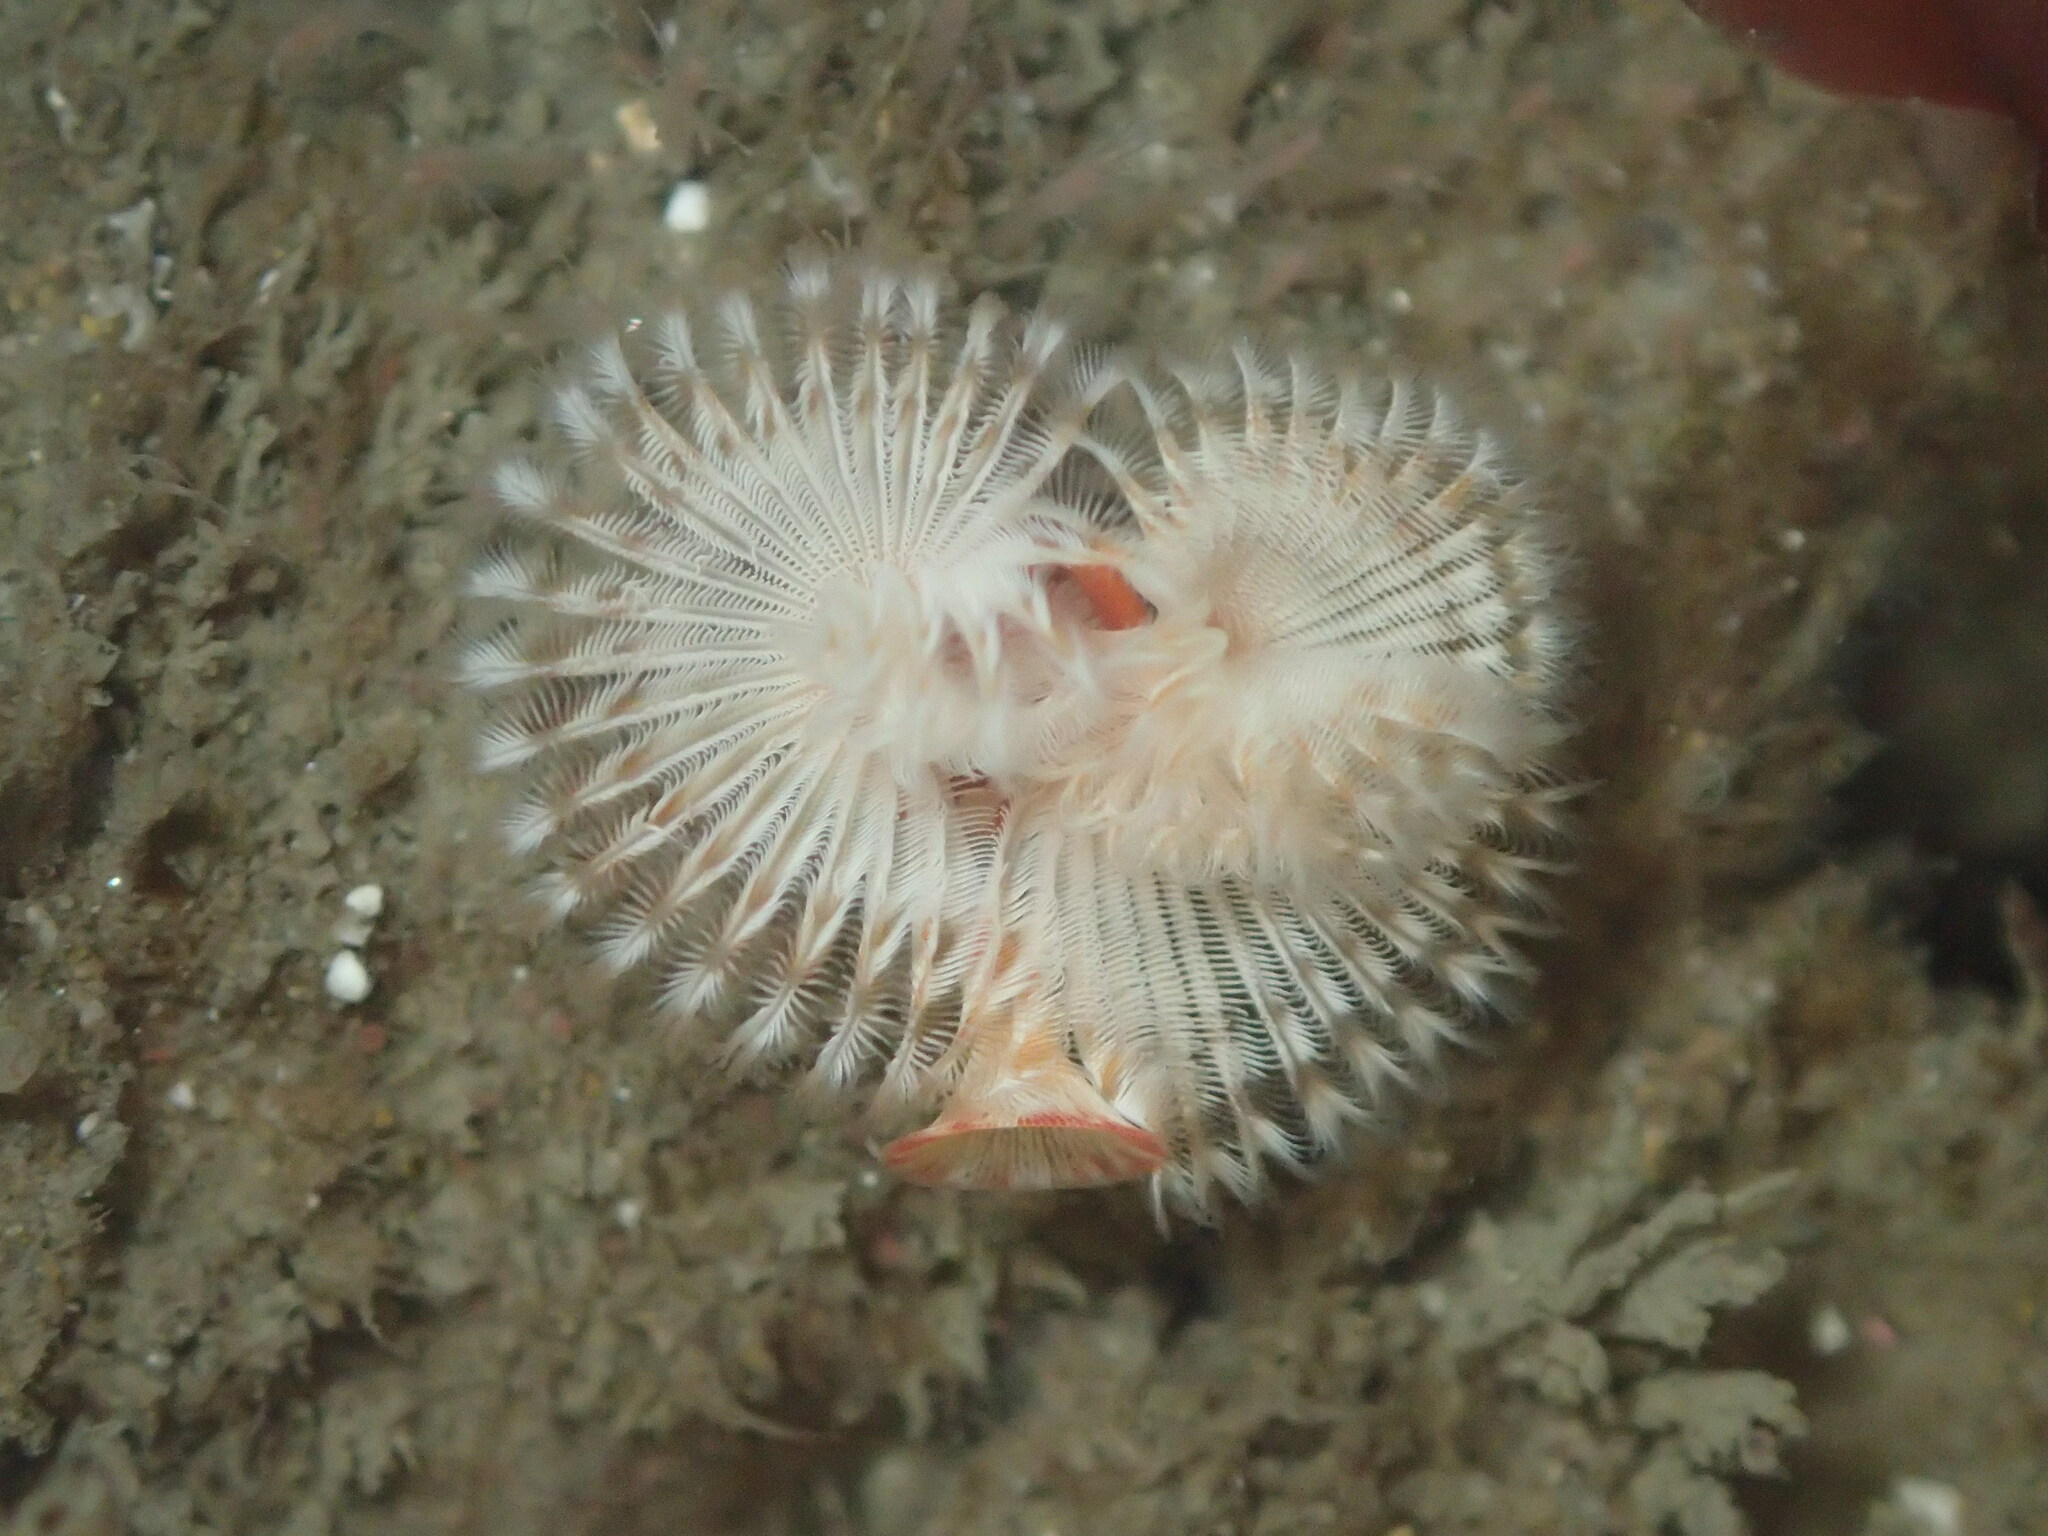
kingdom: Animalia
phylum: Annelida
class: Polychaeta
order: Sabellida
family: Serpulidae
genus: Serpula
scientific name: Serpula columbiana
